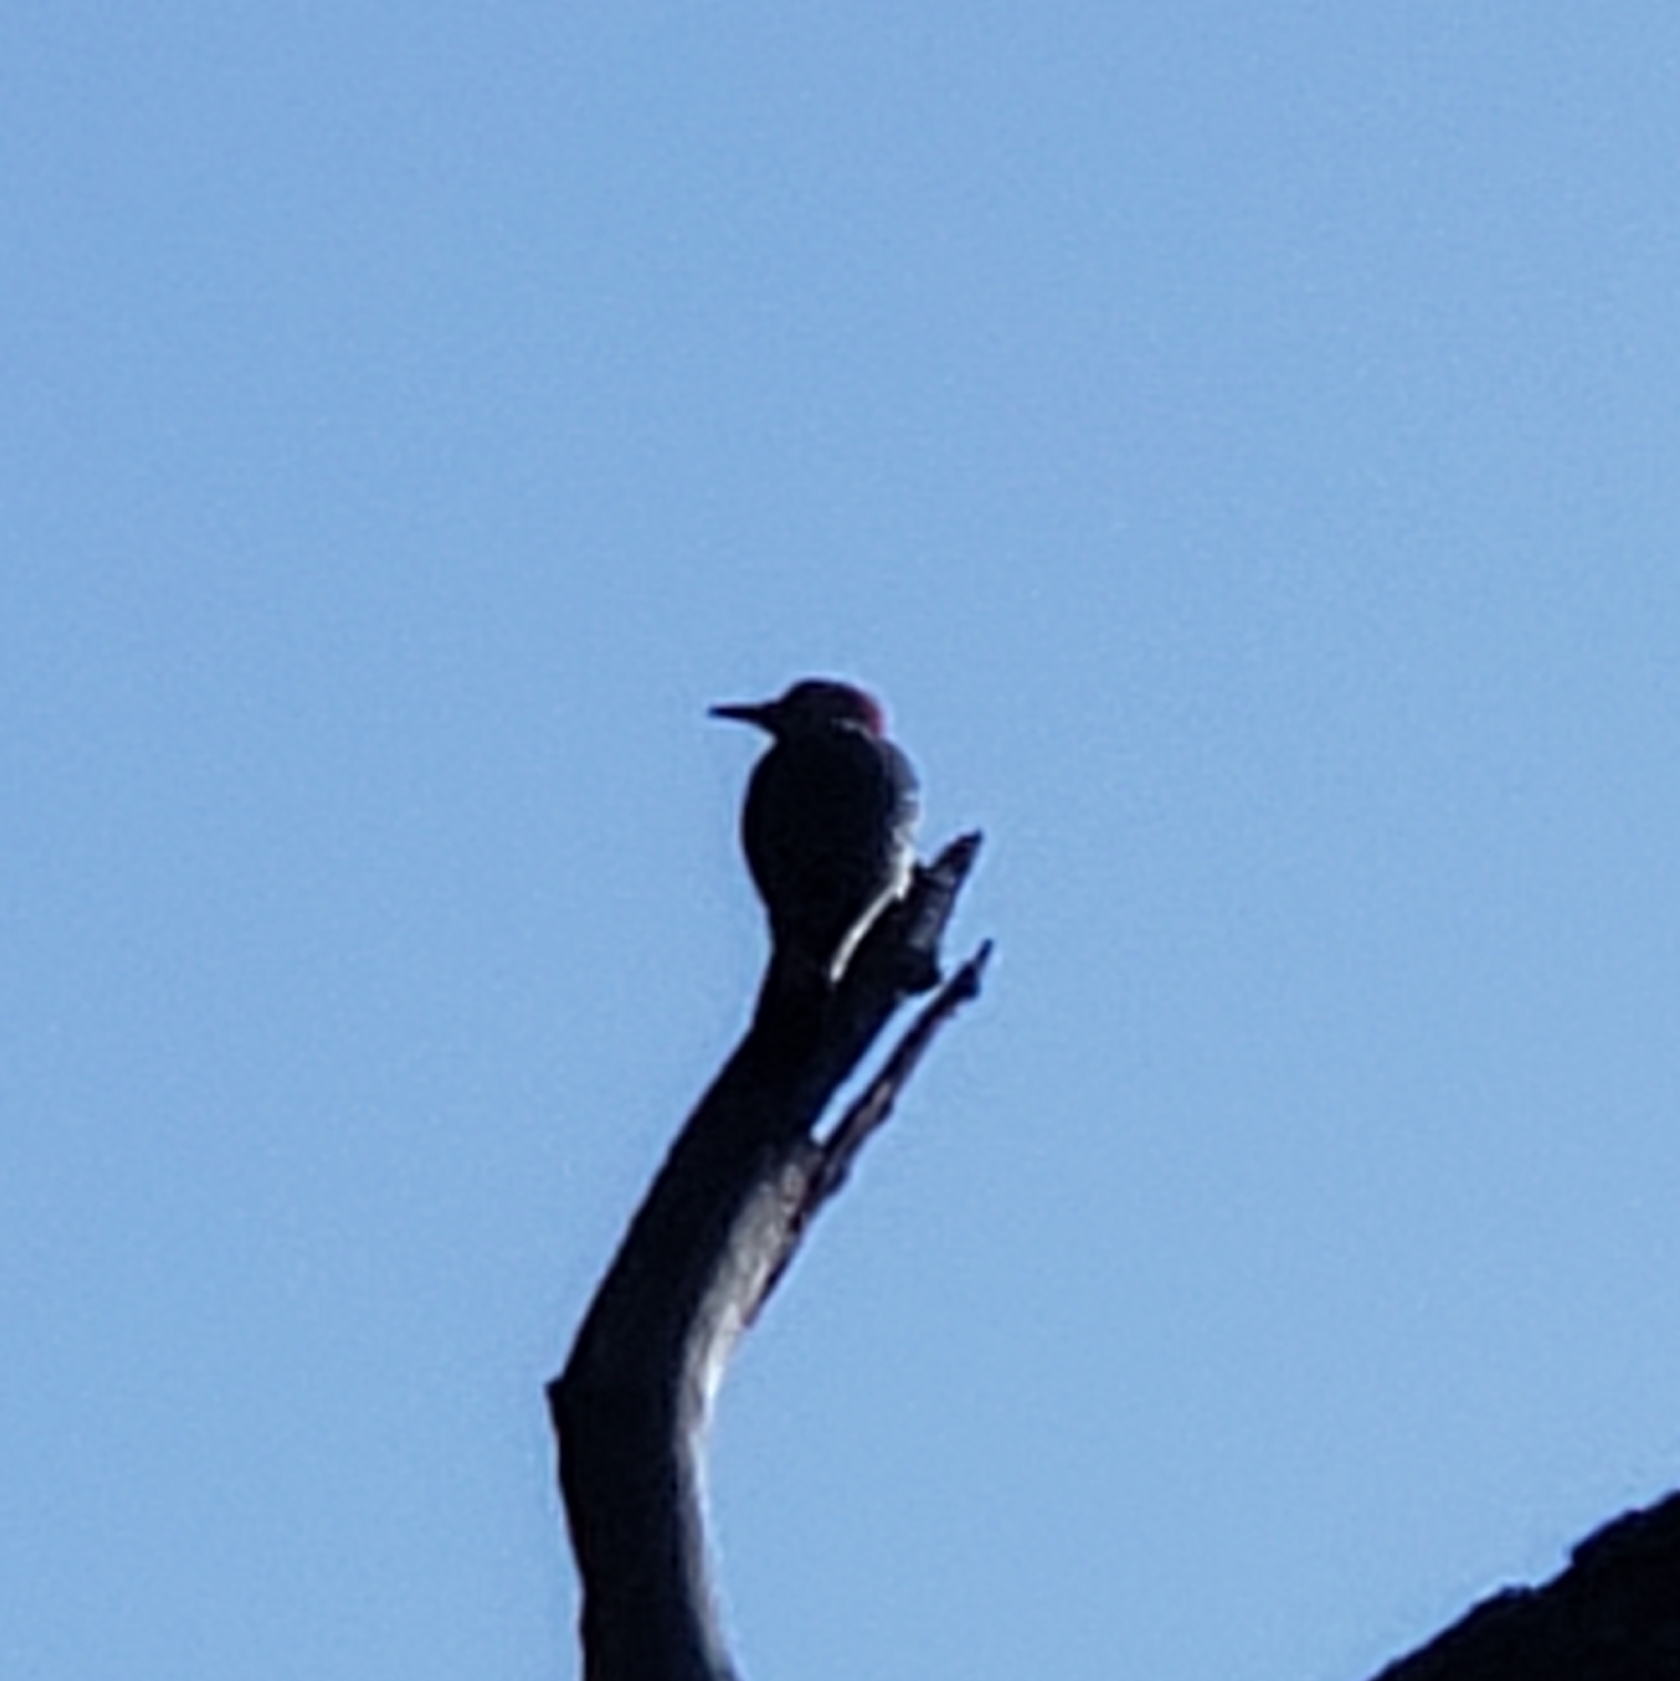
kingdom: Animalia
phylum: Chordata
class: Aves
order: Piciformes
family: Picidae
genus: Melanerpes
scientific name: Melanerpes carolinus
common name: Red-bellied woodpecker
